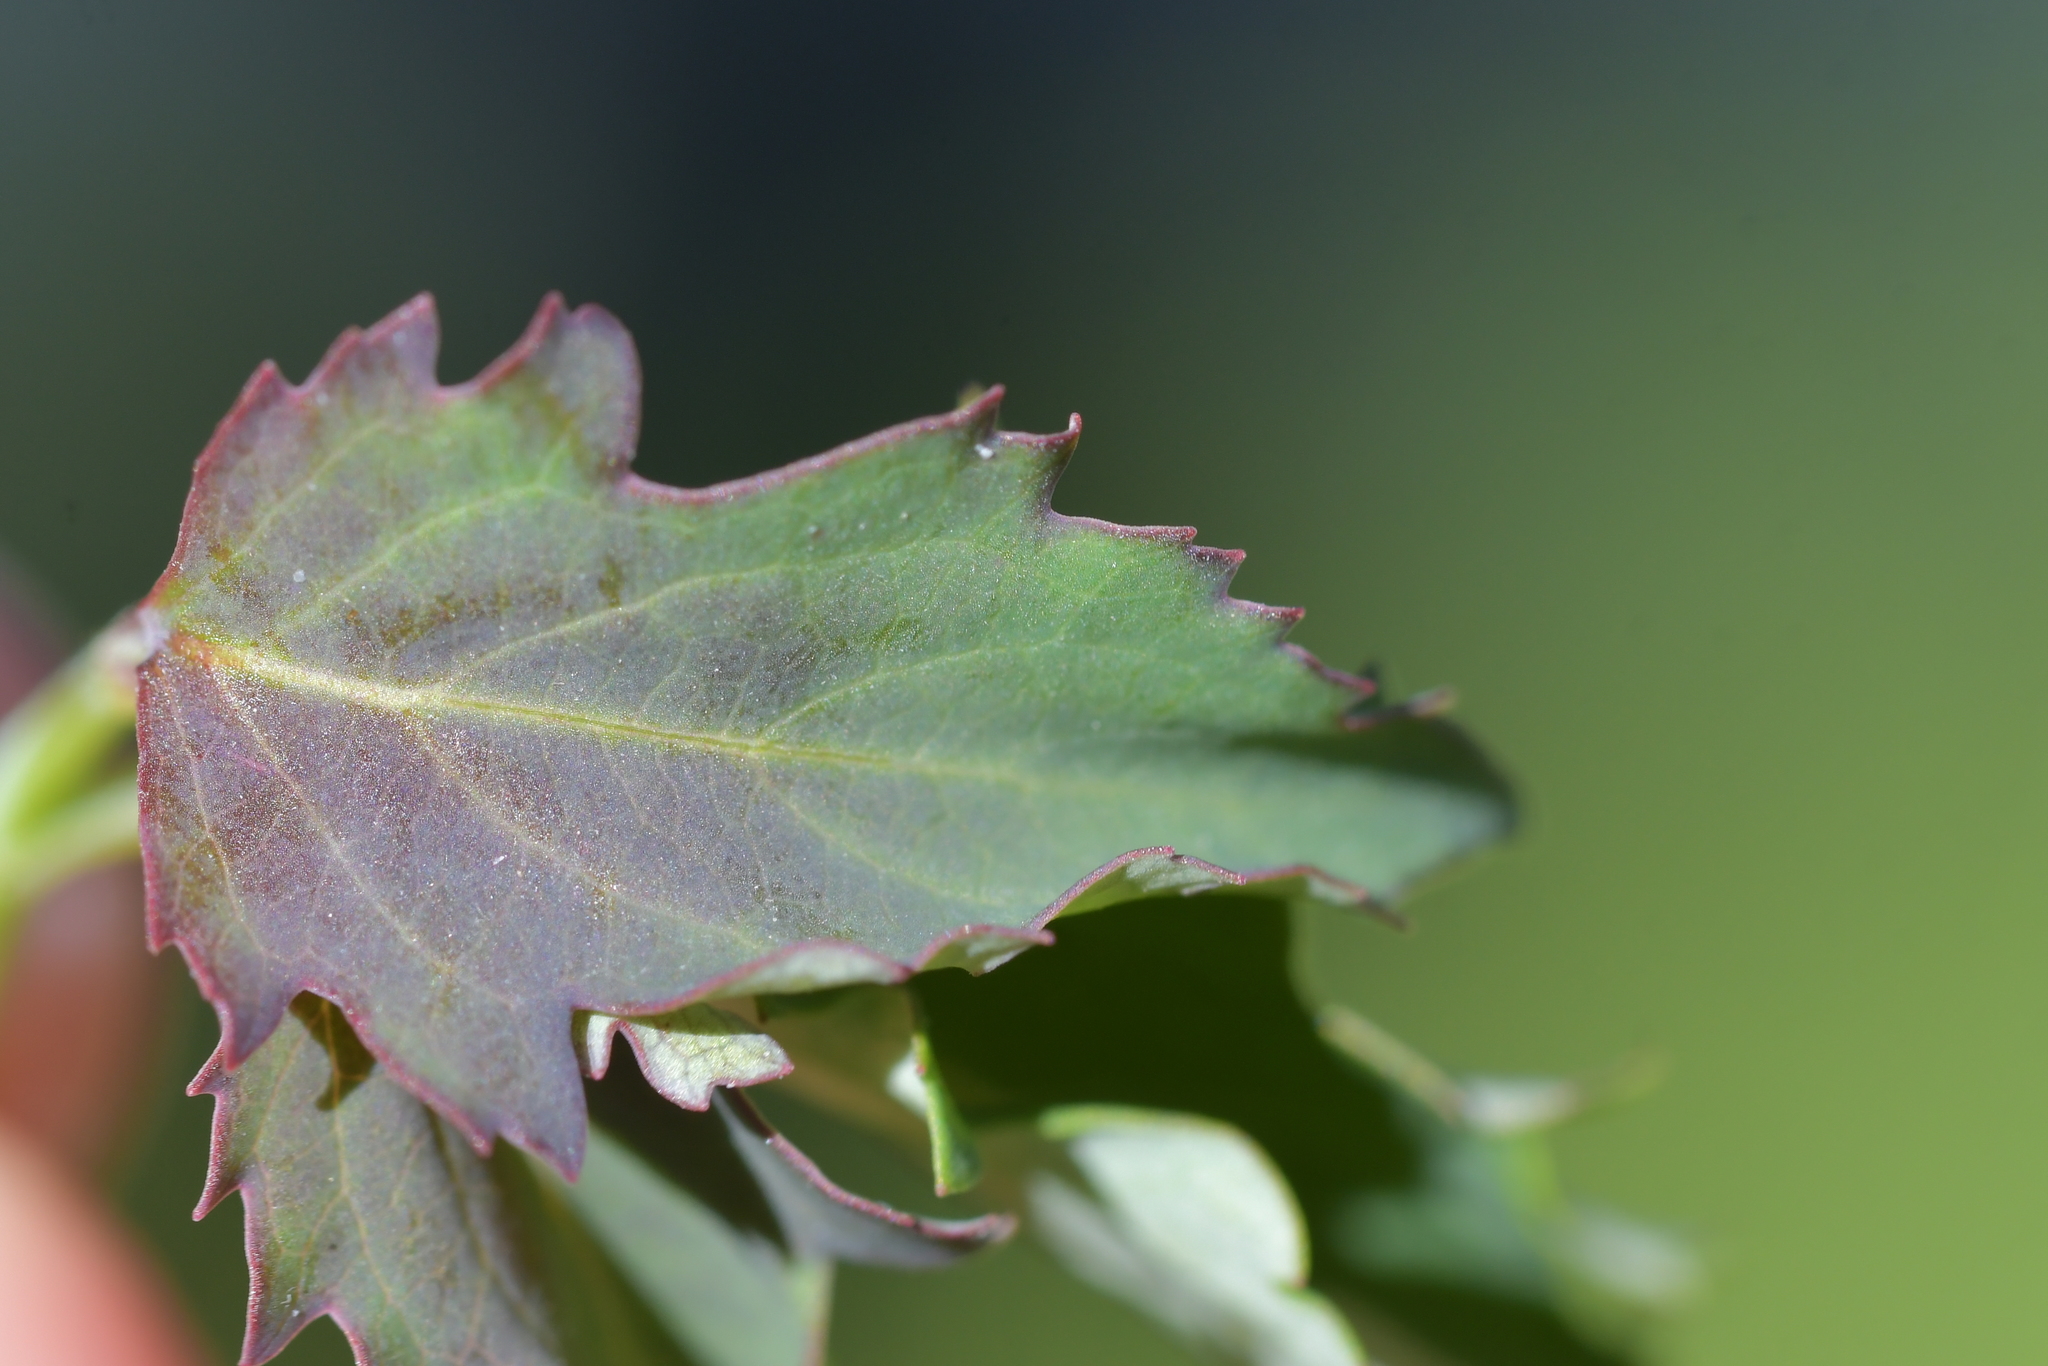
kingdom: Plantae
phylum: Tracheophyta
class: Magnoliopsida
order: Dipsacales
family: Caprifoliaceae
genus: Leycesteria
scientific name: Leycesteria formosa
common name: Himalayan honeysuckle
